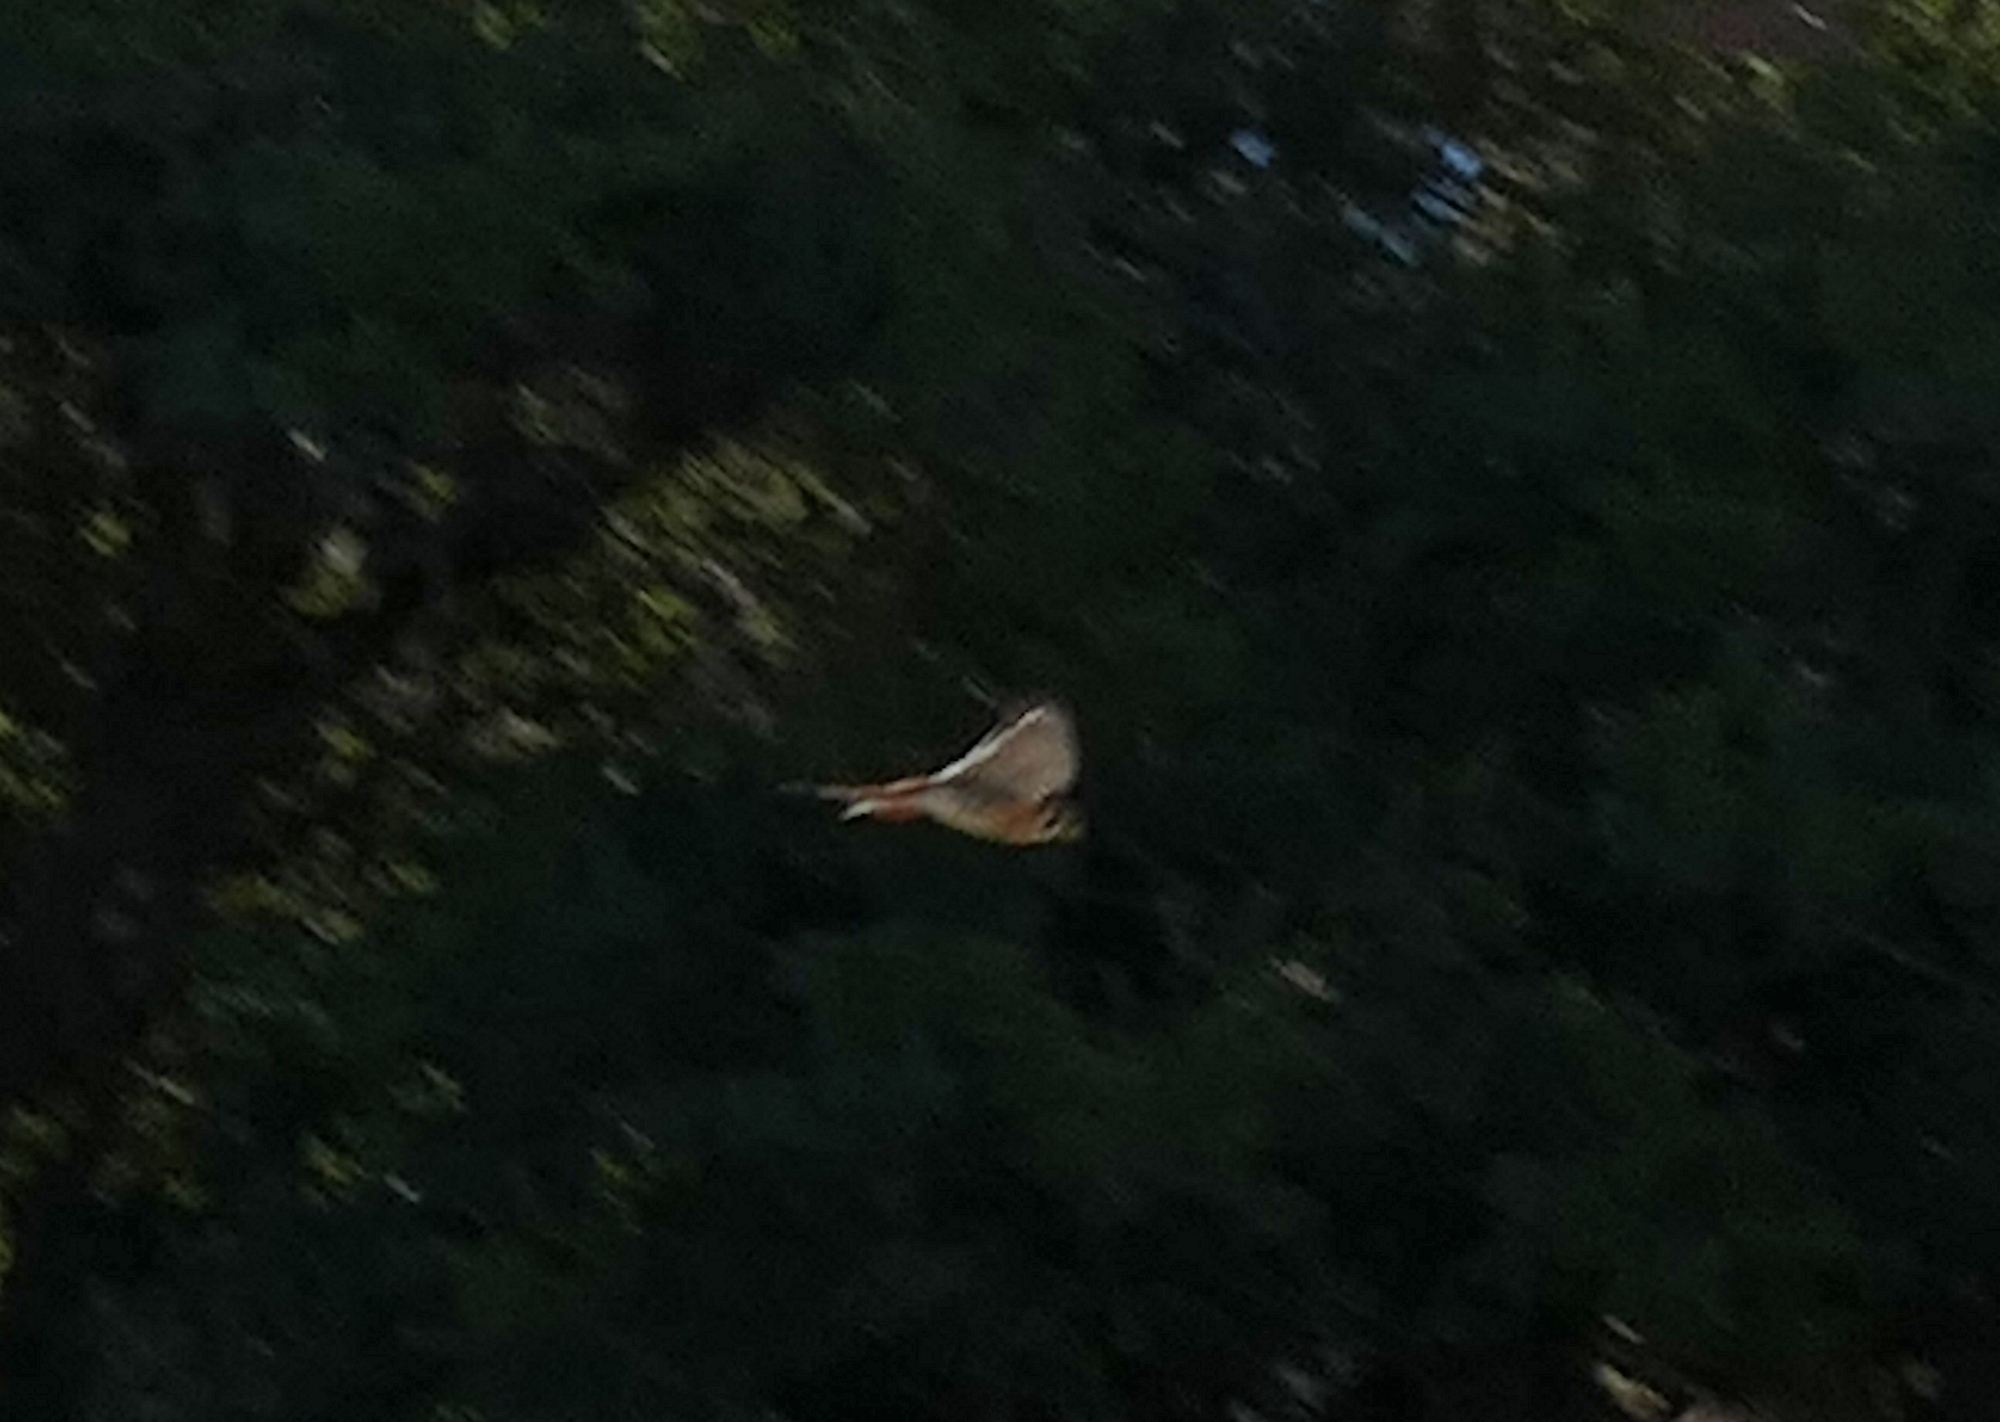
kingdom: Animalia
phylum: Chordata
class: Aves
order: Falconiformes
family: Falconidae
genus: Falco
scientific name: Falco sparverius
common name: American kestrel
